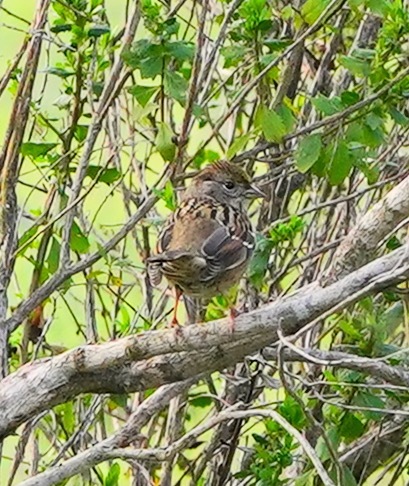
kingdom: Animalia
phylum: Chordata
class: Aves
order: Passeriformes
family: Passerellidae
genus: Zonotrichia
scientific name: Zonotrichia atricapilla
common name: Golden-crowned sparrow
